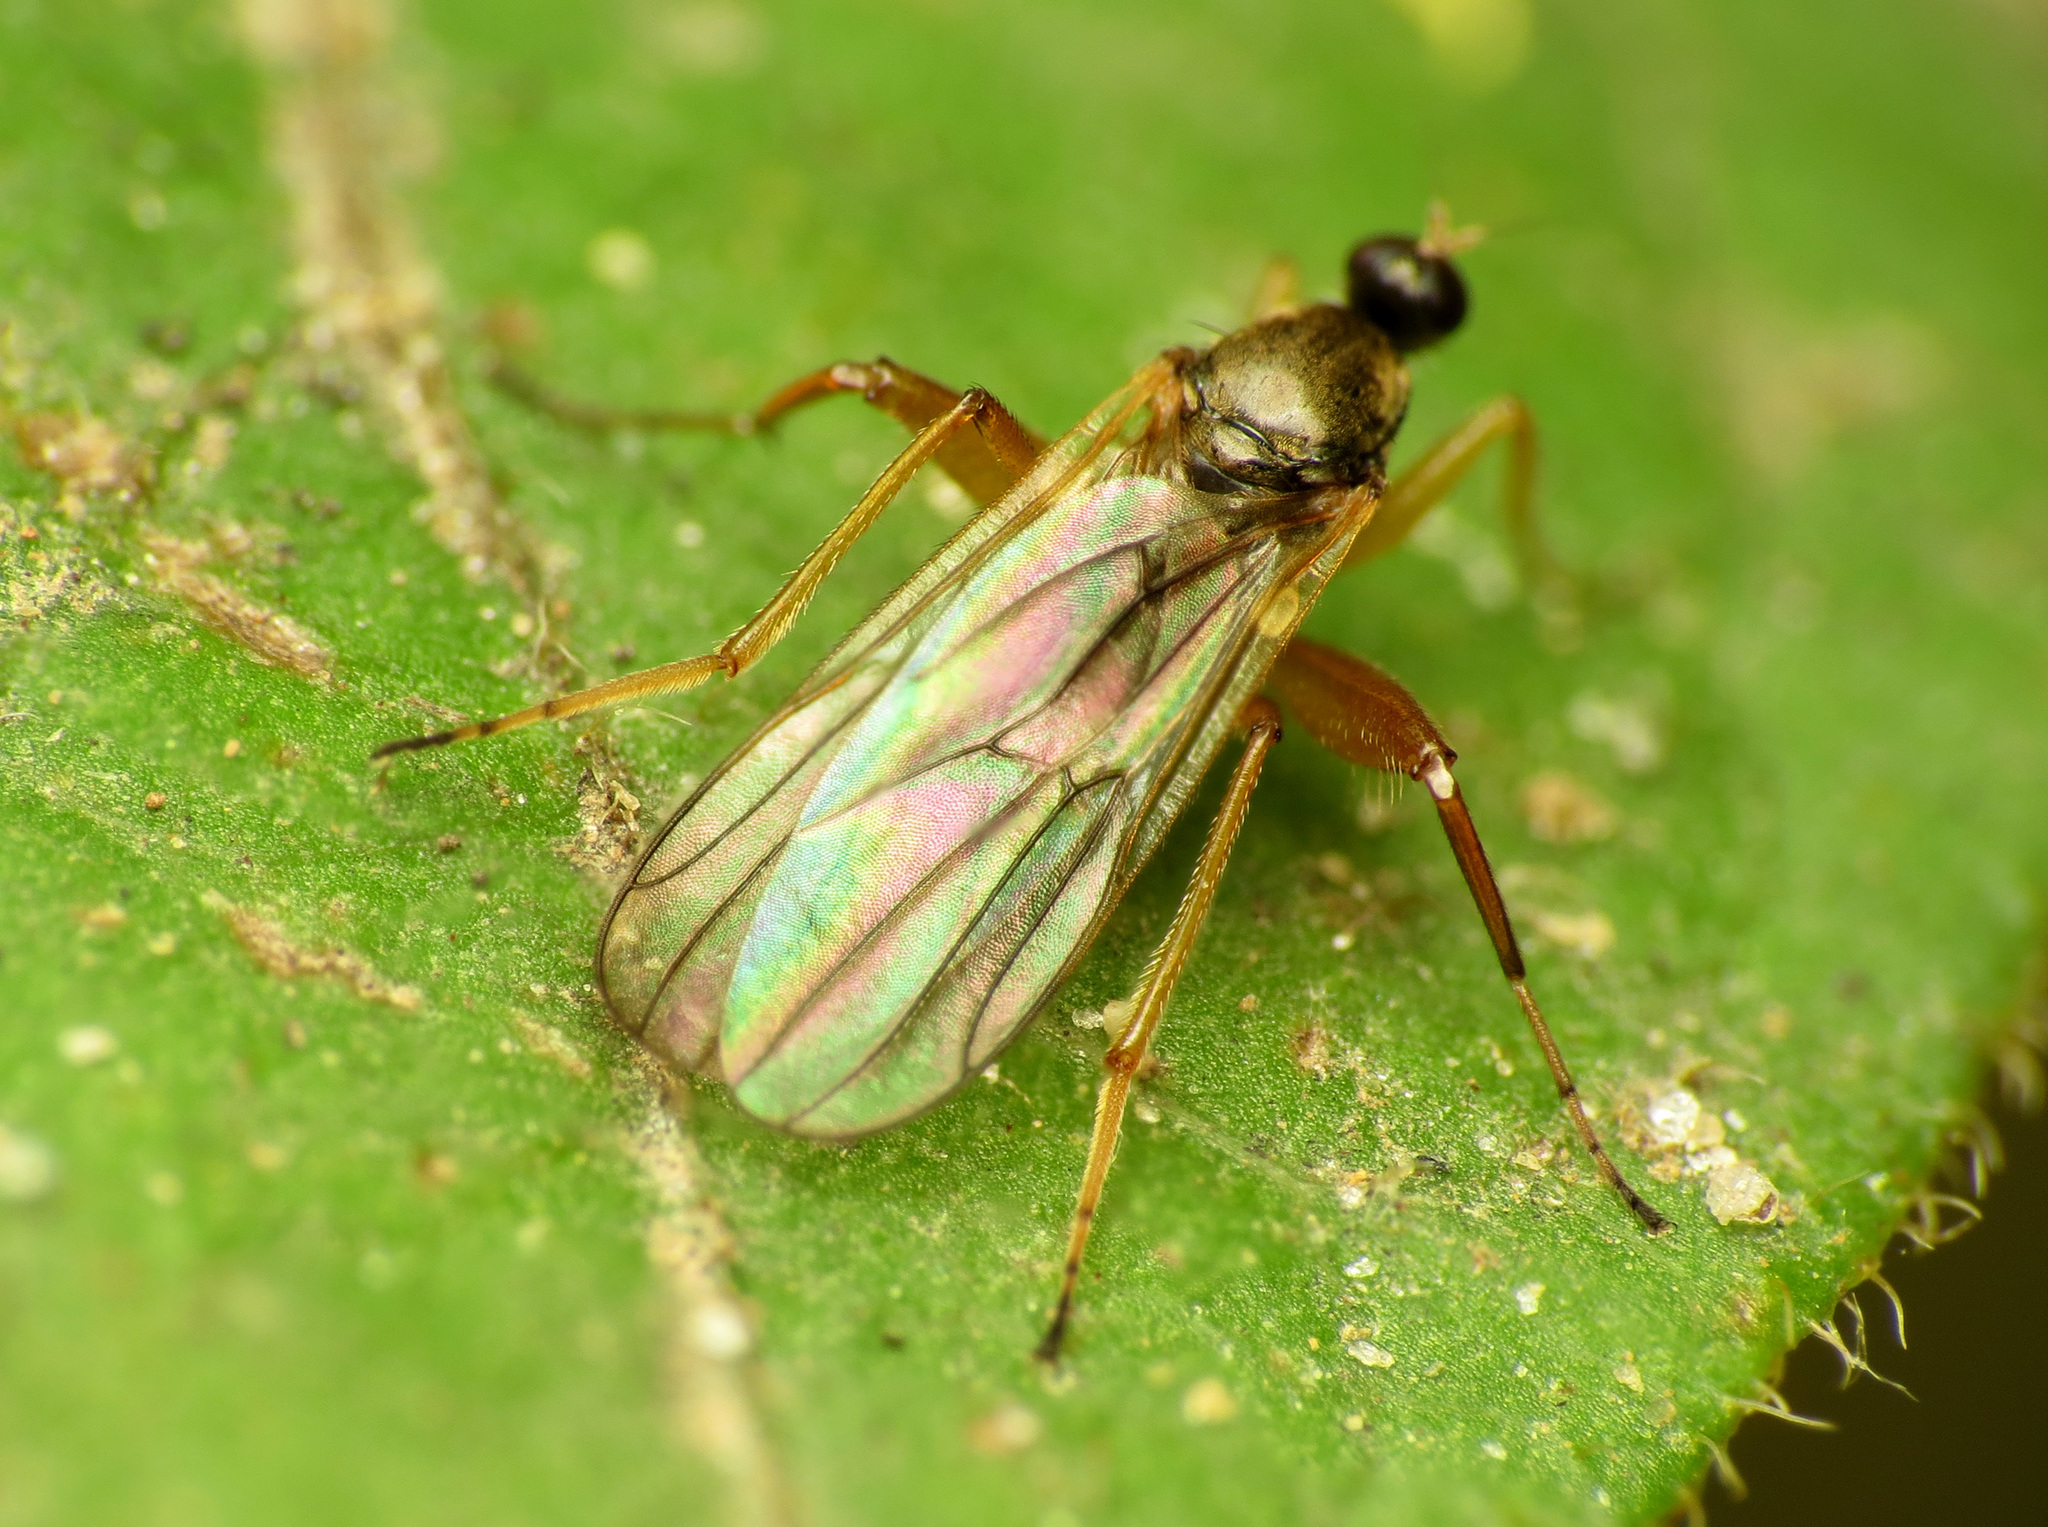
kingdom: Animalia
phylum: Arthropoda
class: Insecta
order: Diptera
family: Hybotidae
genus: Platypalpus
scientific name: Platypalpus discifer
